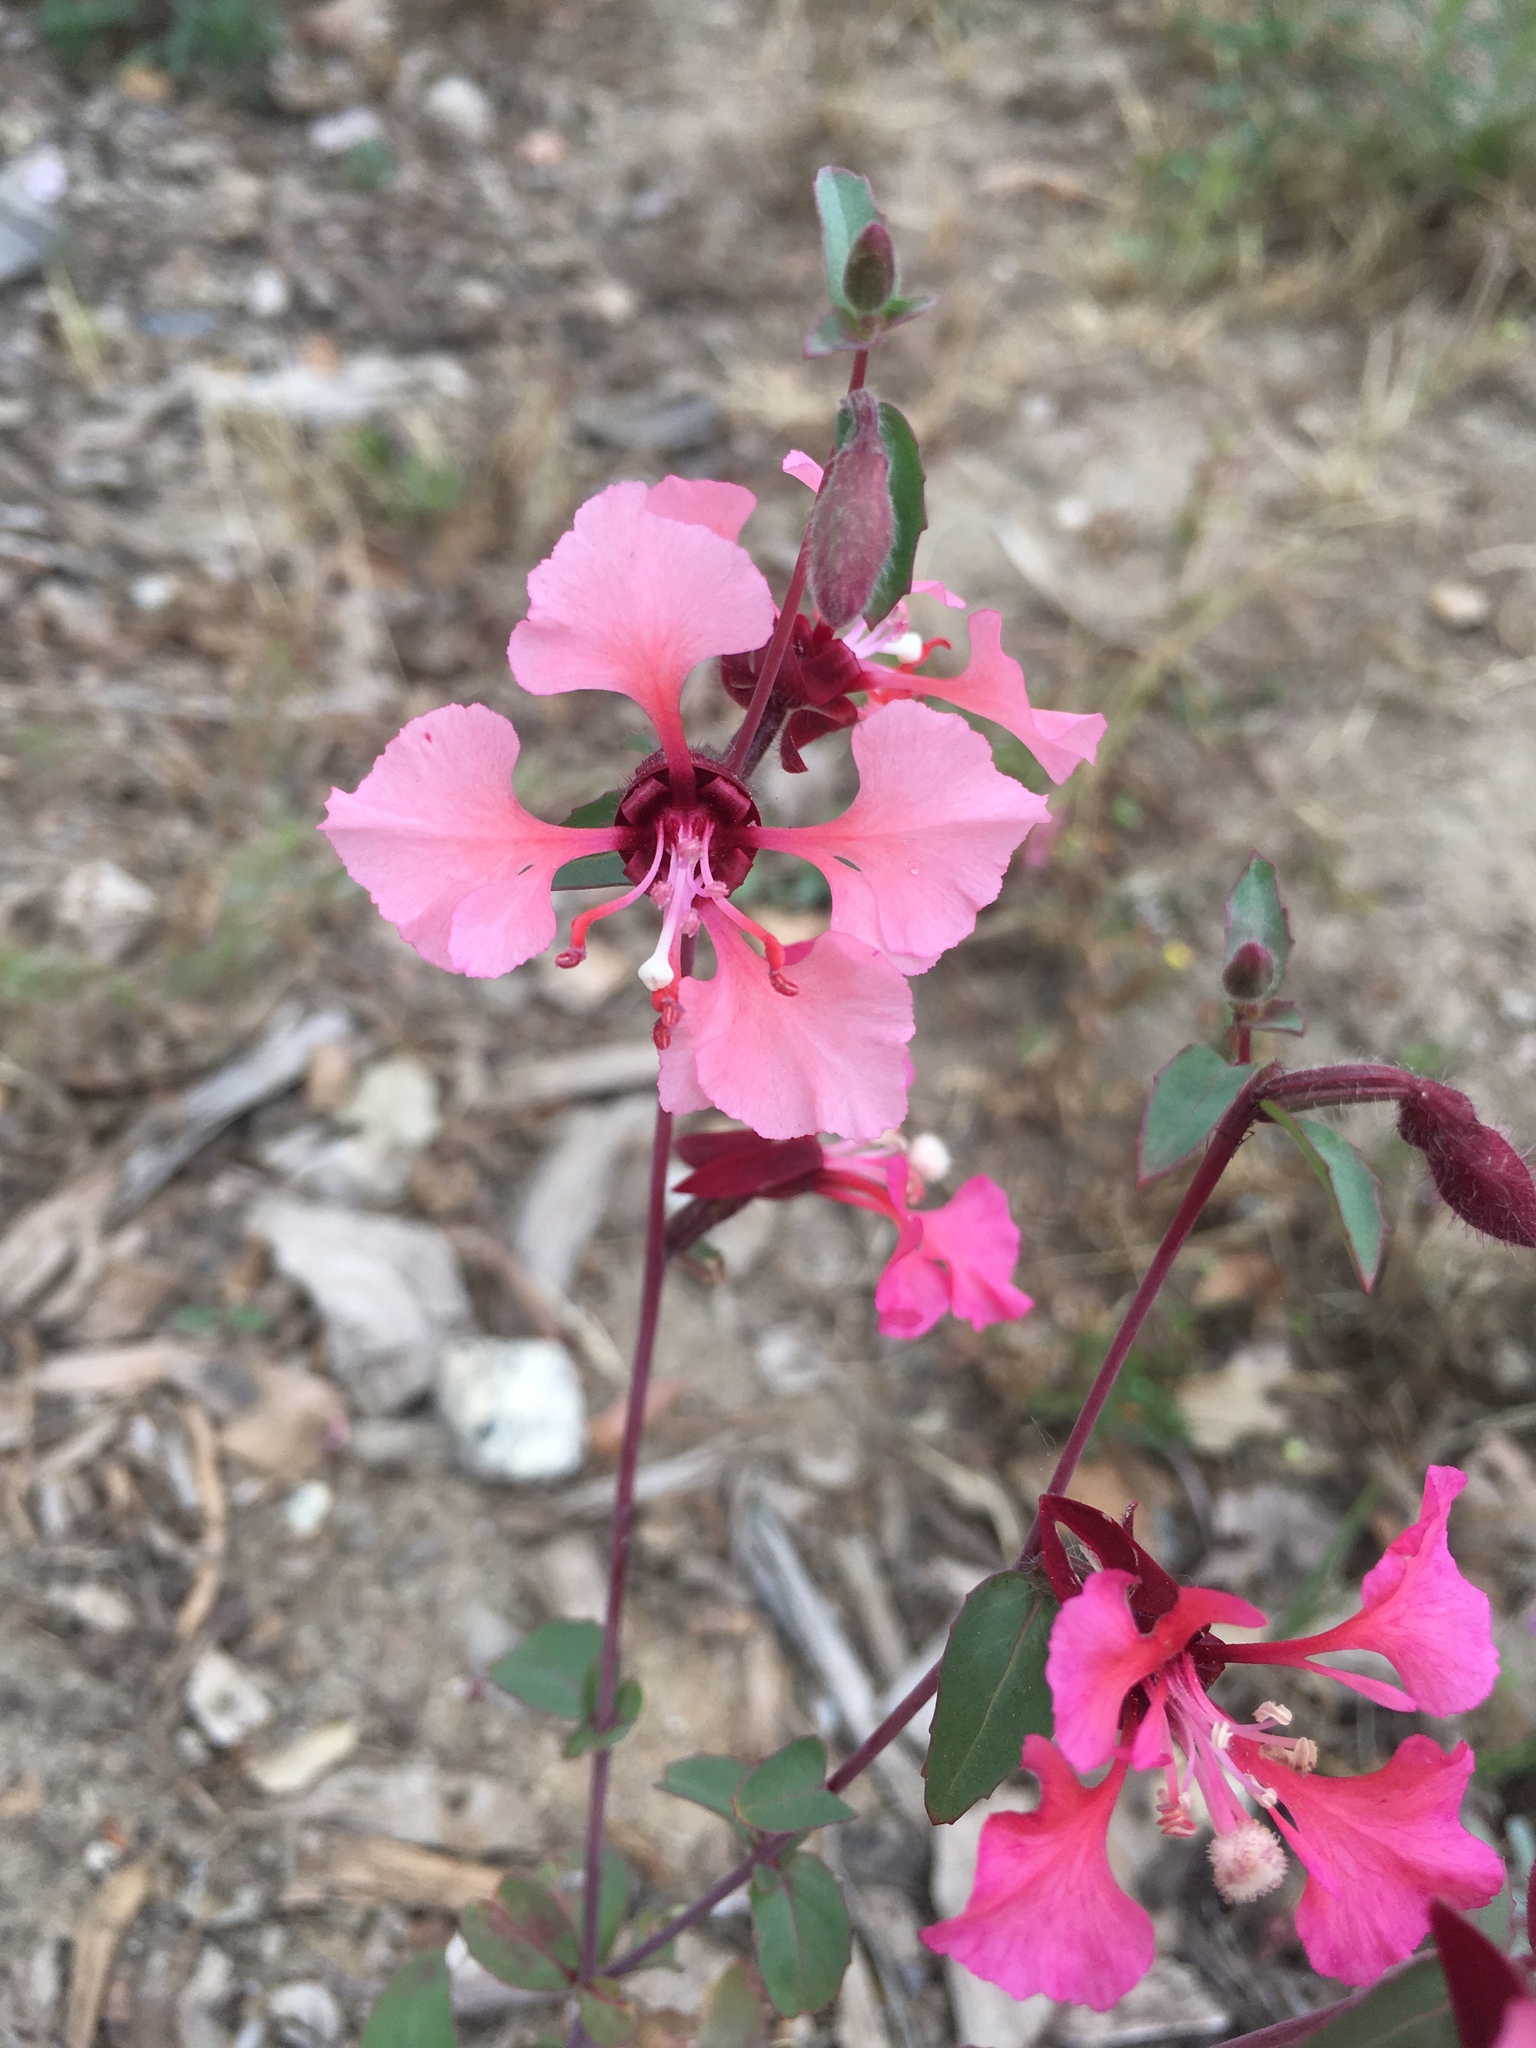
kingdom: Plantae
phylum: Tracheophyta
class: Magnoliopsida
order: Myrtales
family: Onagraceae
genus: Clarkia
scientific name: Clarkia unguiculata
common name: Clarkia
